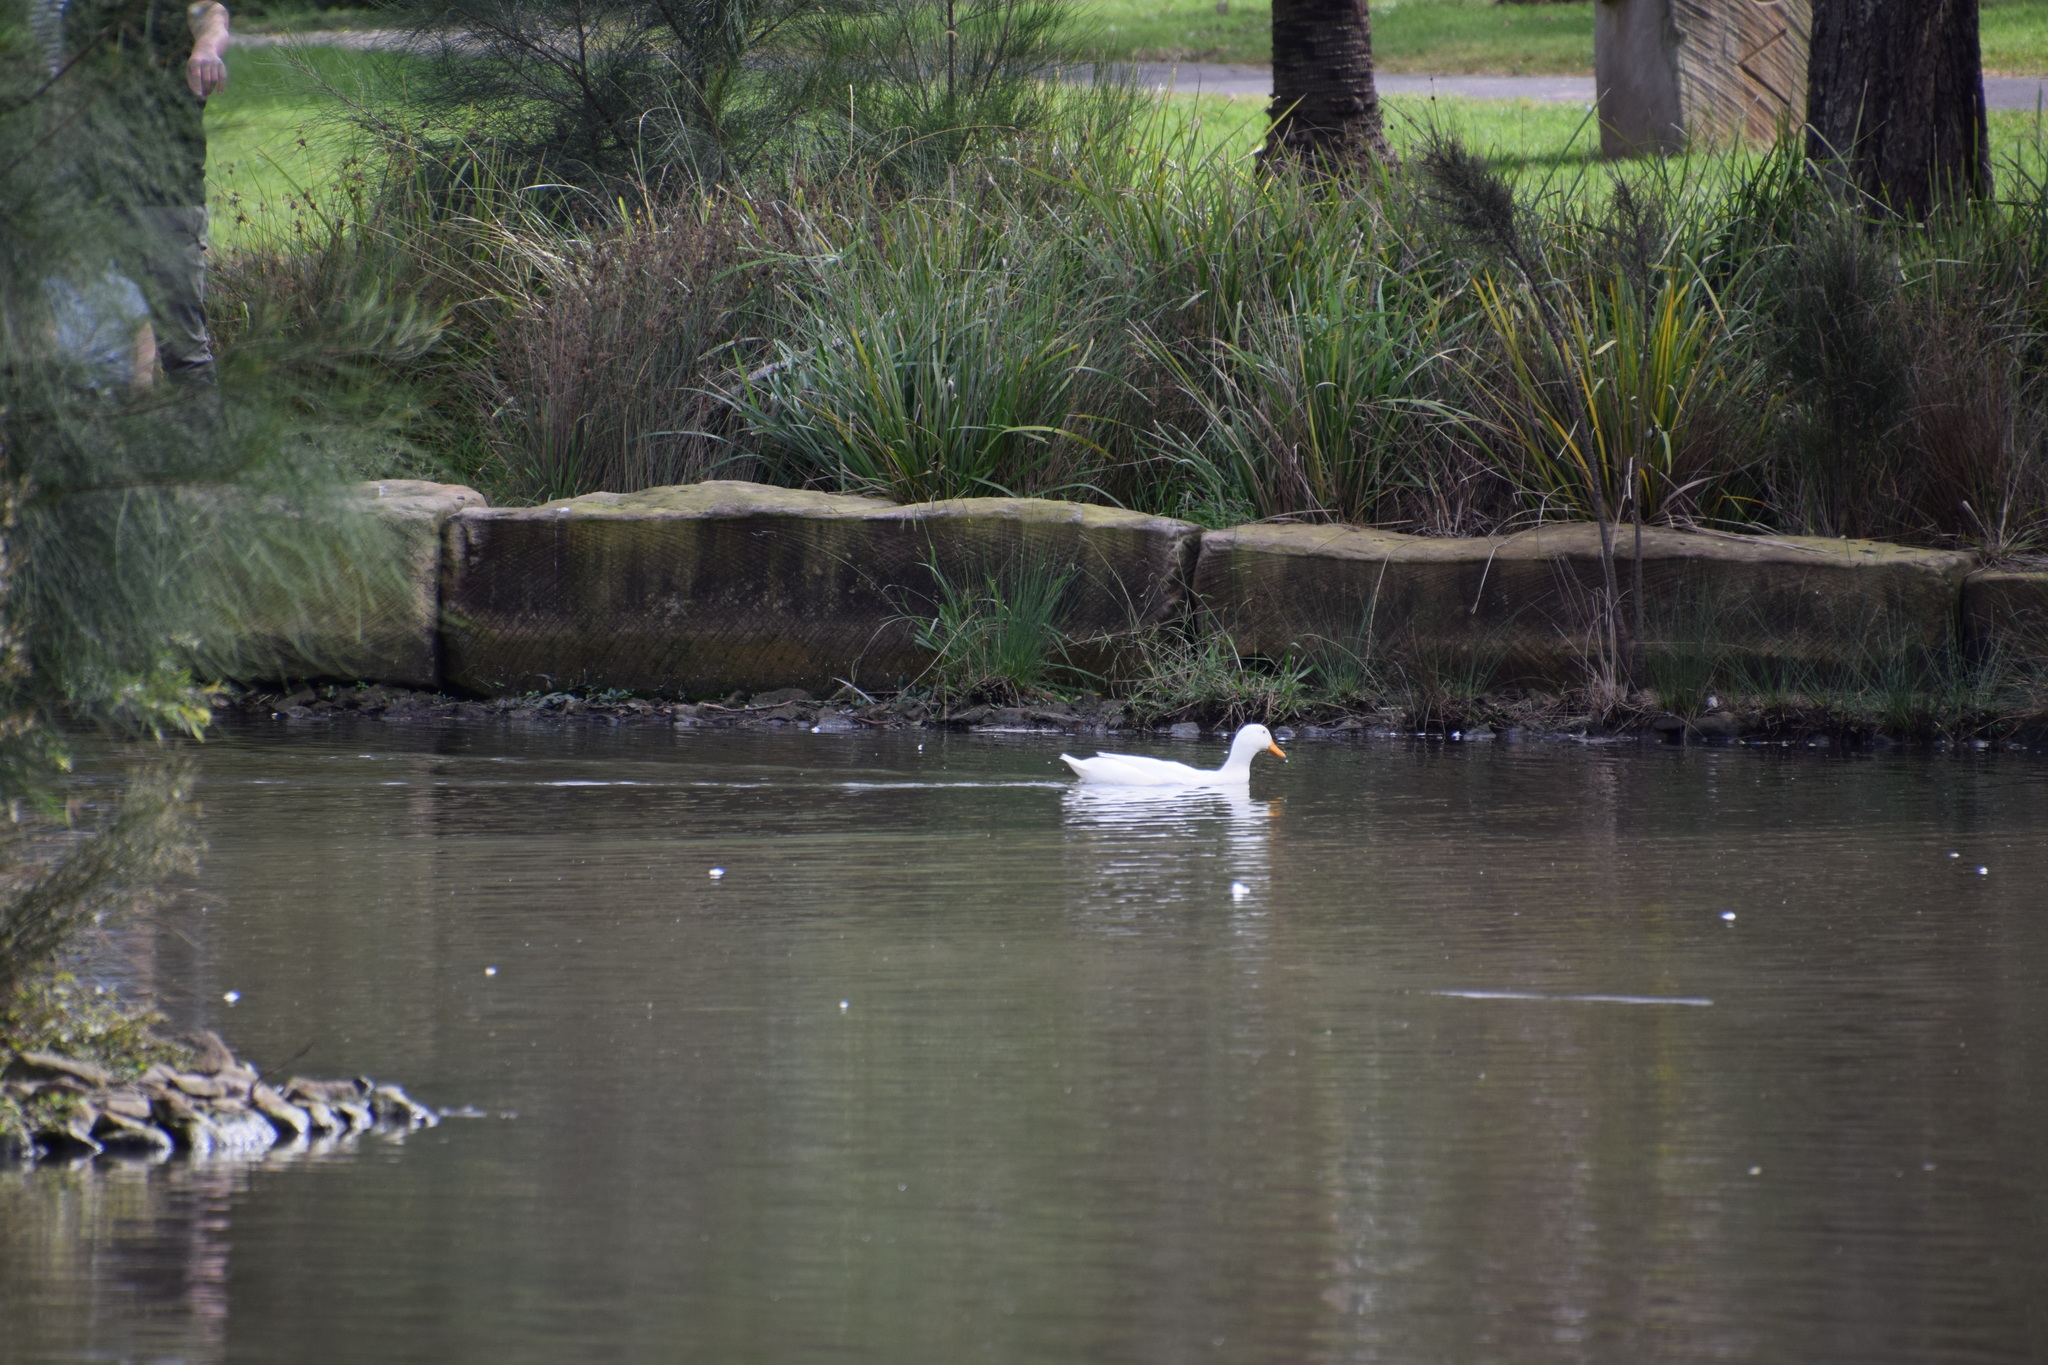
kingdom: Animalia
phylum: Chordata
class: Aves
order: Anseriformes
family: Anatidae
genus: Anas
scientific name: Anas platyrhynchos
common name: Mallard
